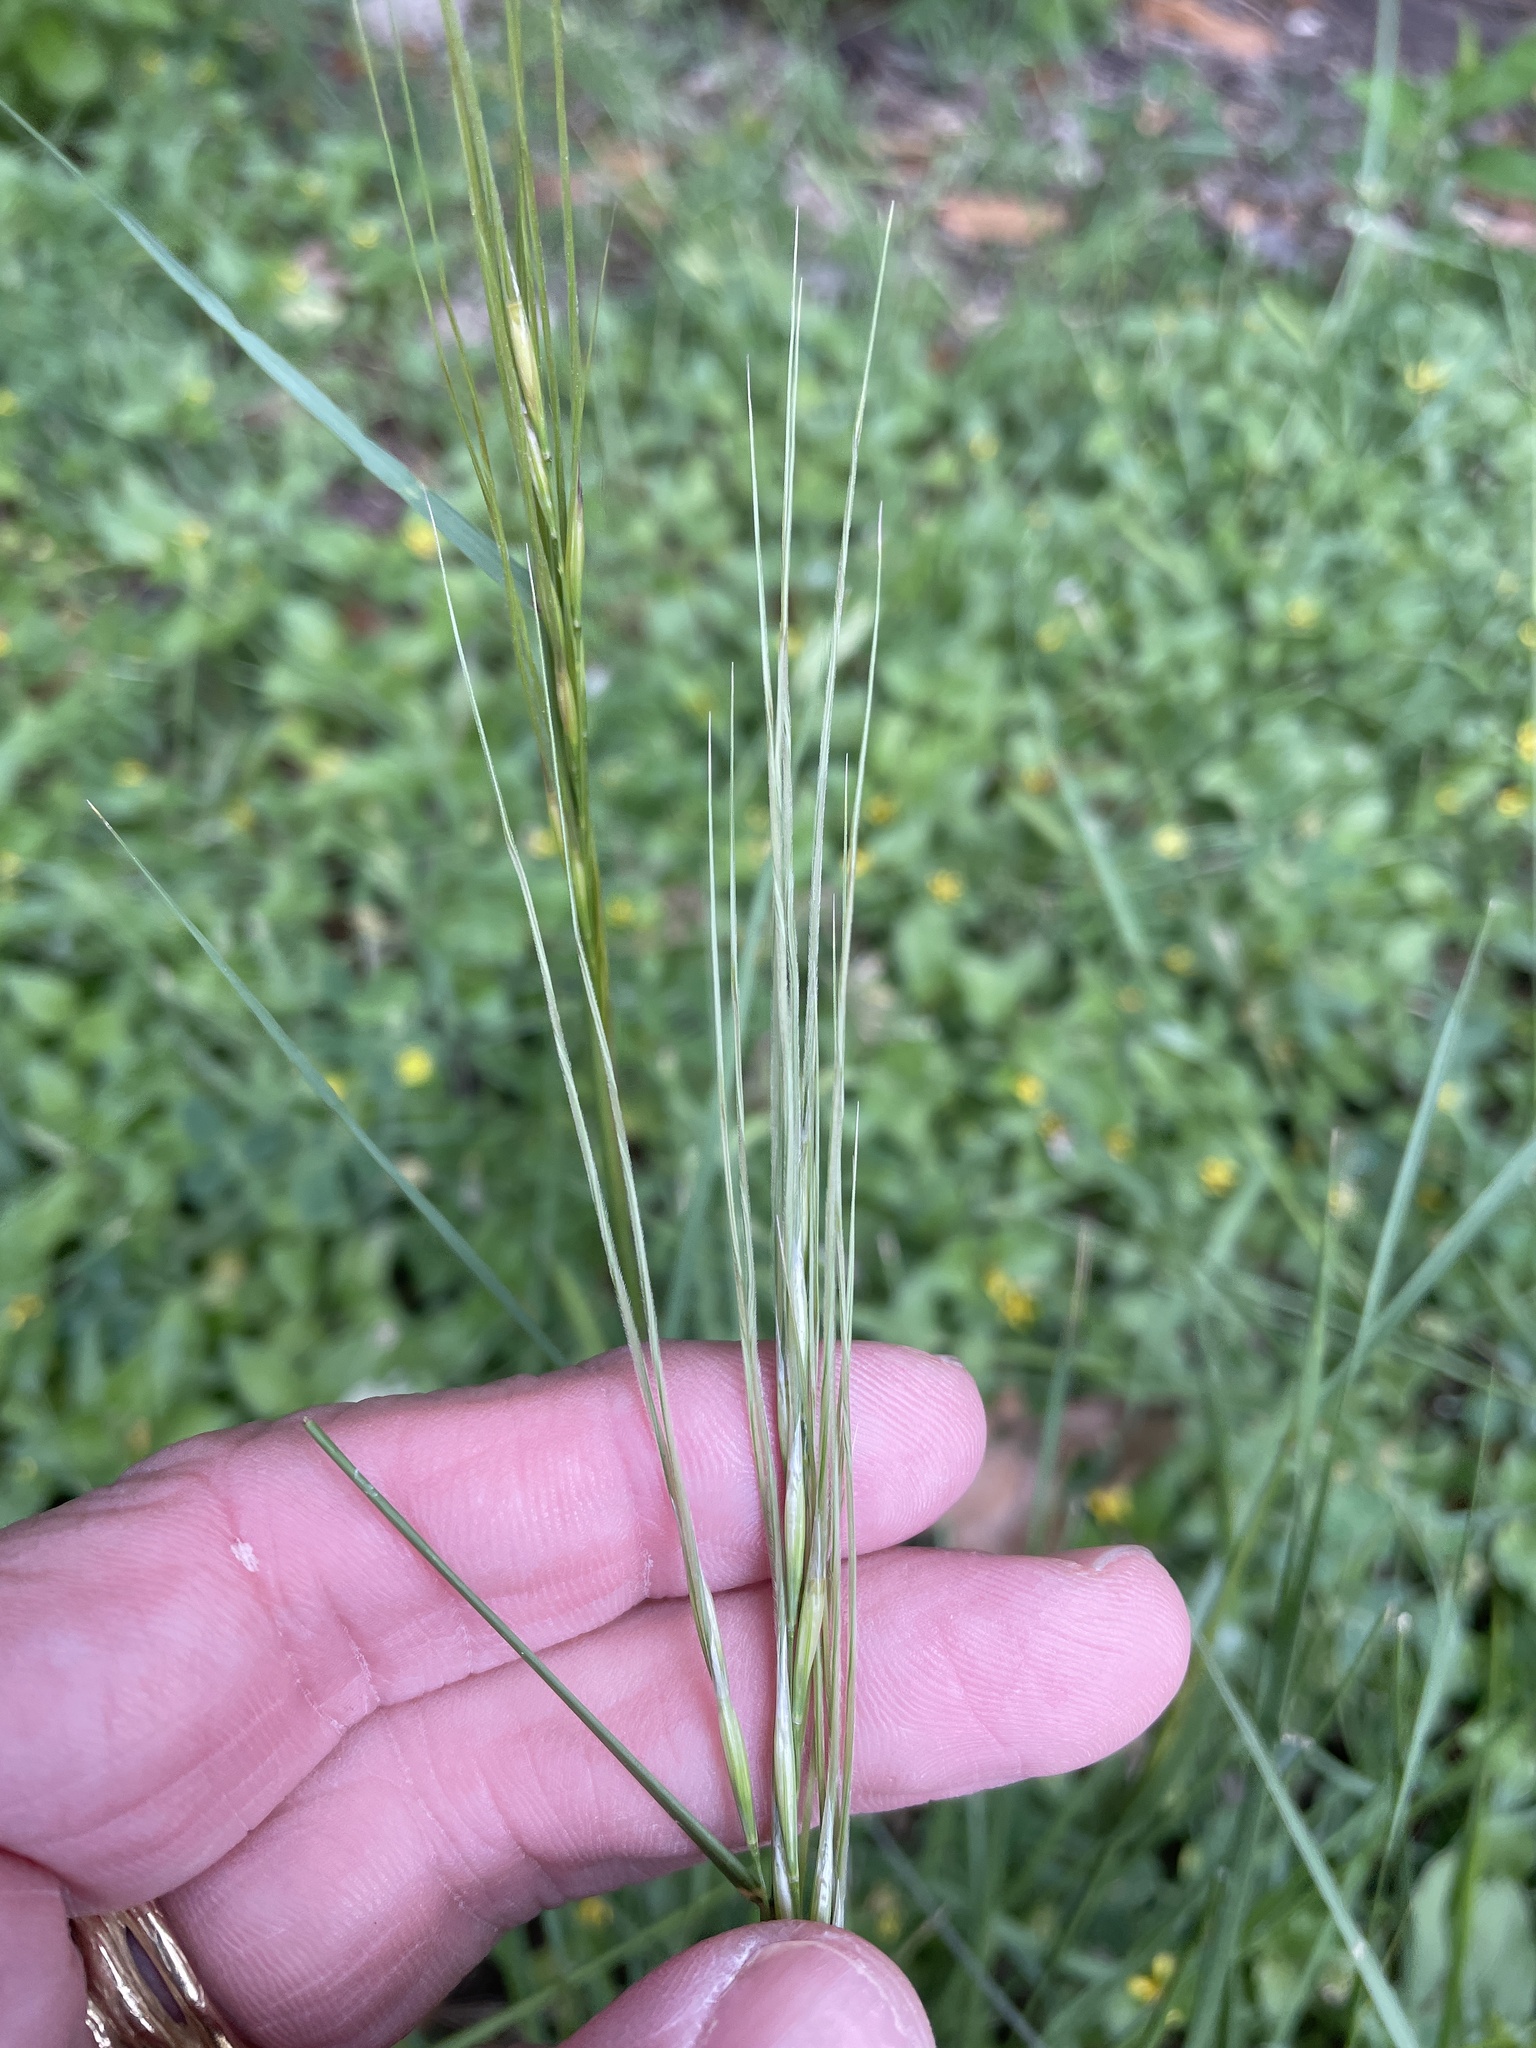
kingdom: Plantae
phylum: Tracheophyta
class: Liliopsida
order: Poales
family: Poaceae
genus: Nassella
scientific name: Nassella leucotricha
